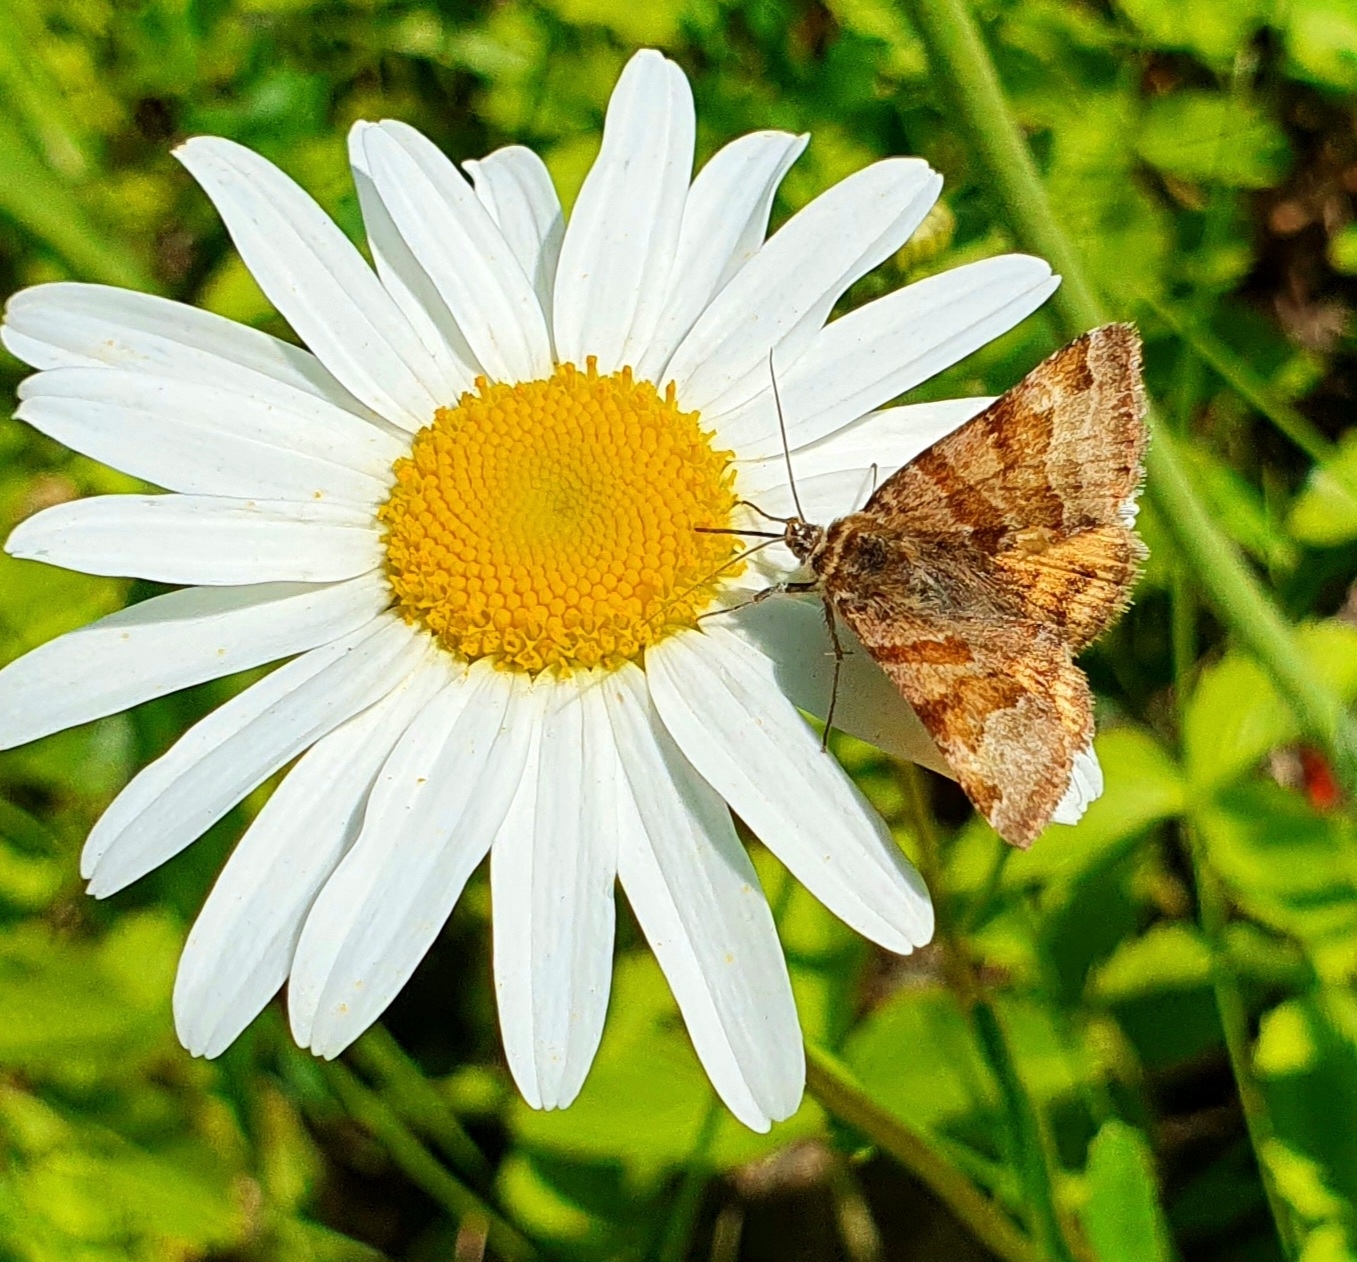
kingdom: Animalia
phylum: Arthropoda
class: Insecta
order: Lepidoptera
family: Erebidae
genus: Euclidia
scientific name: Euclidia glyphica
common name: Burnet companion
